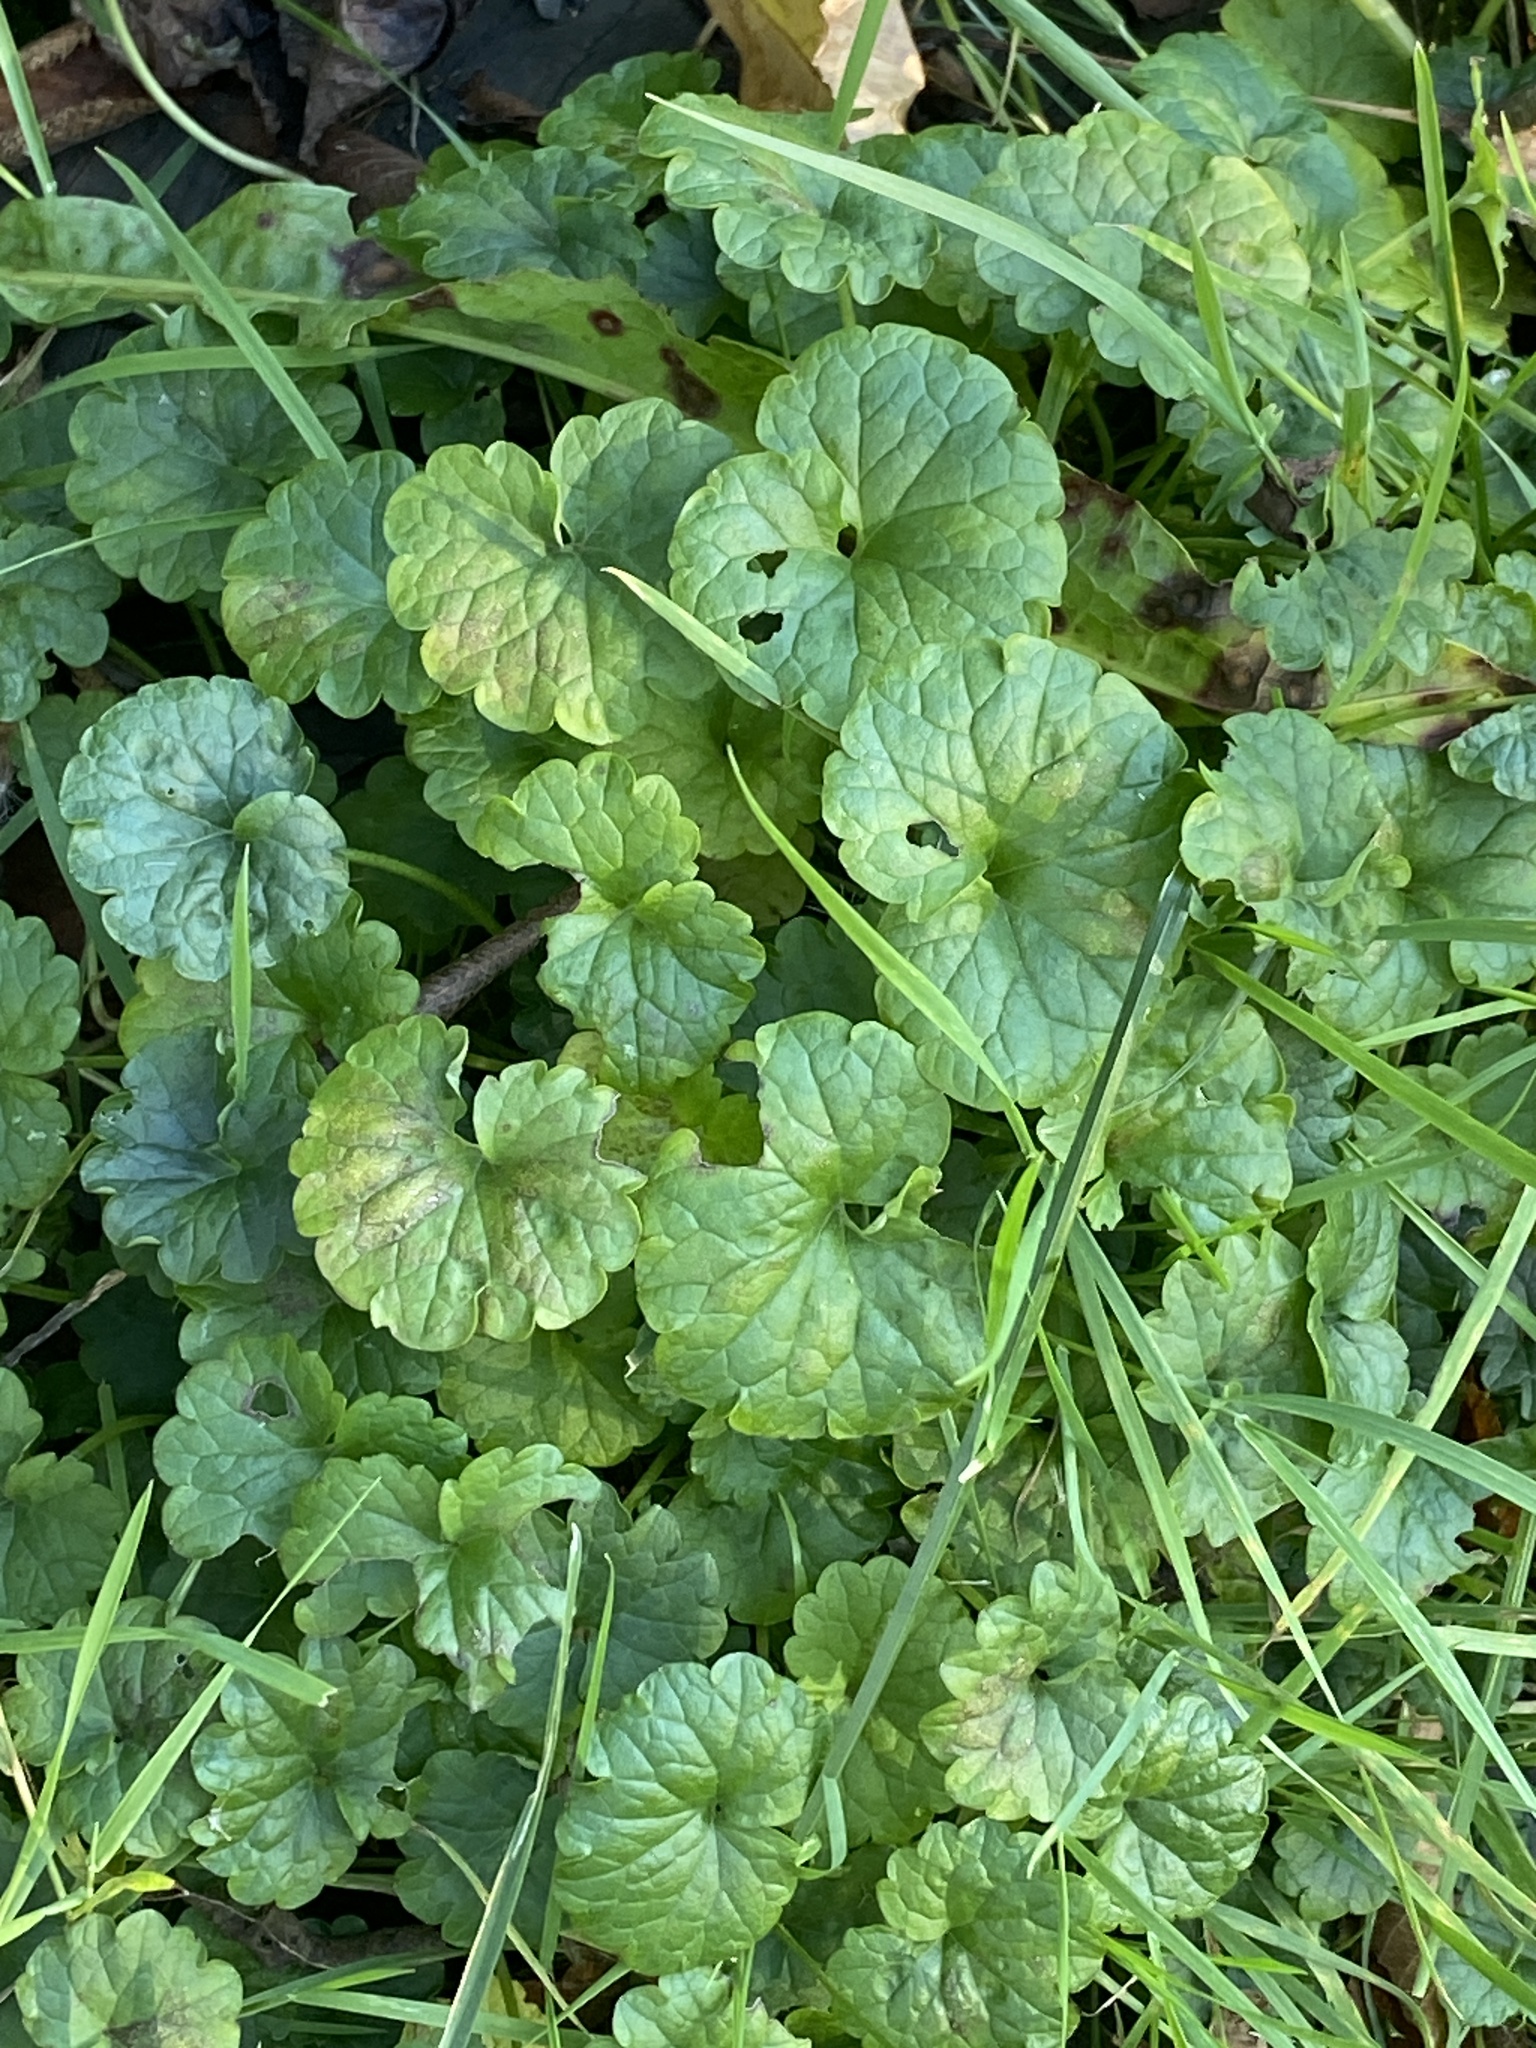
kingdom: Plantae
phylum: Tracheophyta
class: Magnoliopsida
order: Lamiales
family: Lamiaceae
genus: Glechoma
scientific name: Glechoma hederacea
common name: Ground ivy
